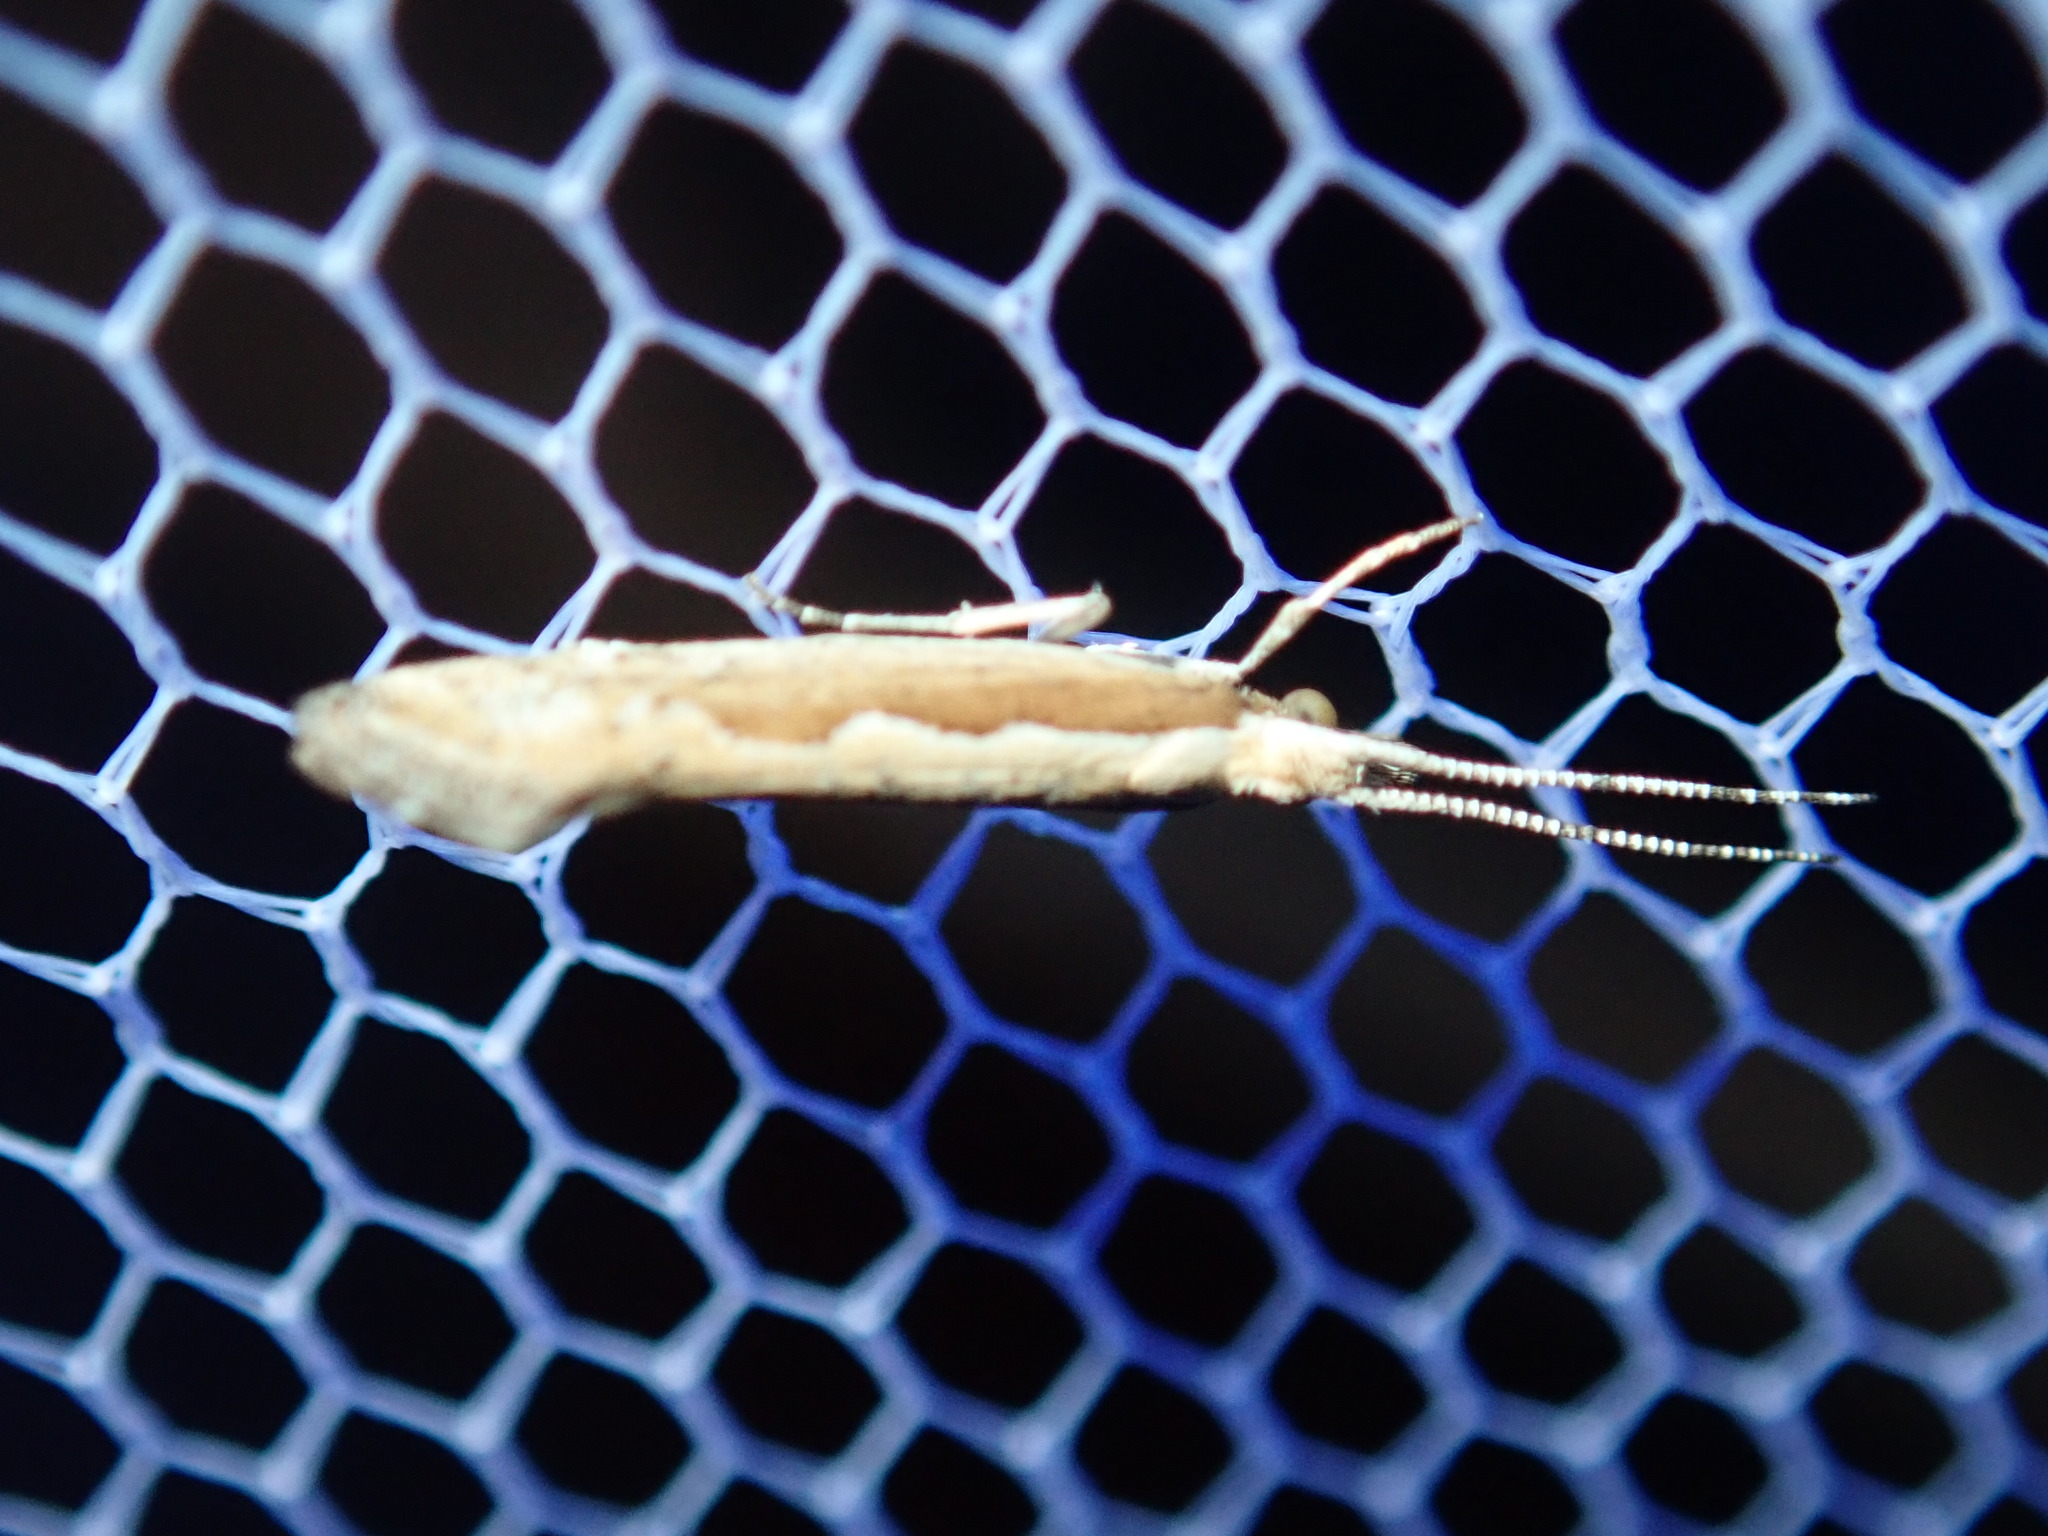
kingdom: Animalia
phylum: Arthropoda
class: Insecta
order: Lepidoptera
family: Plutellidae
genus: Plutella
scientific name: Plutella
